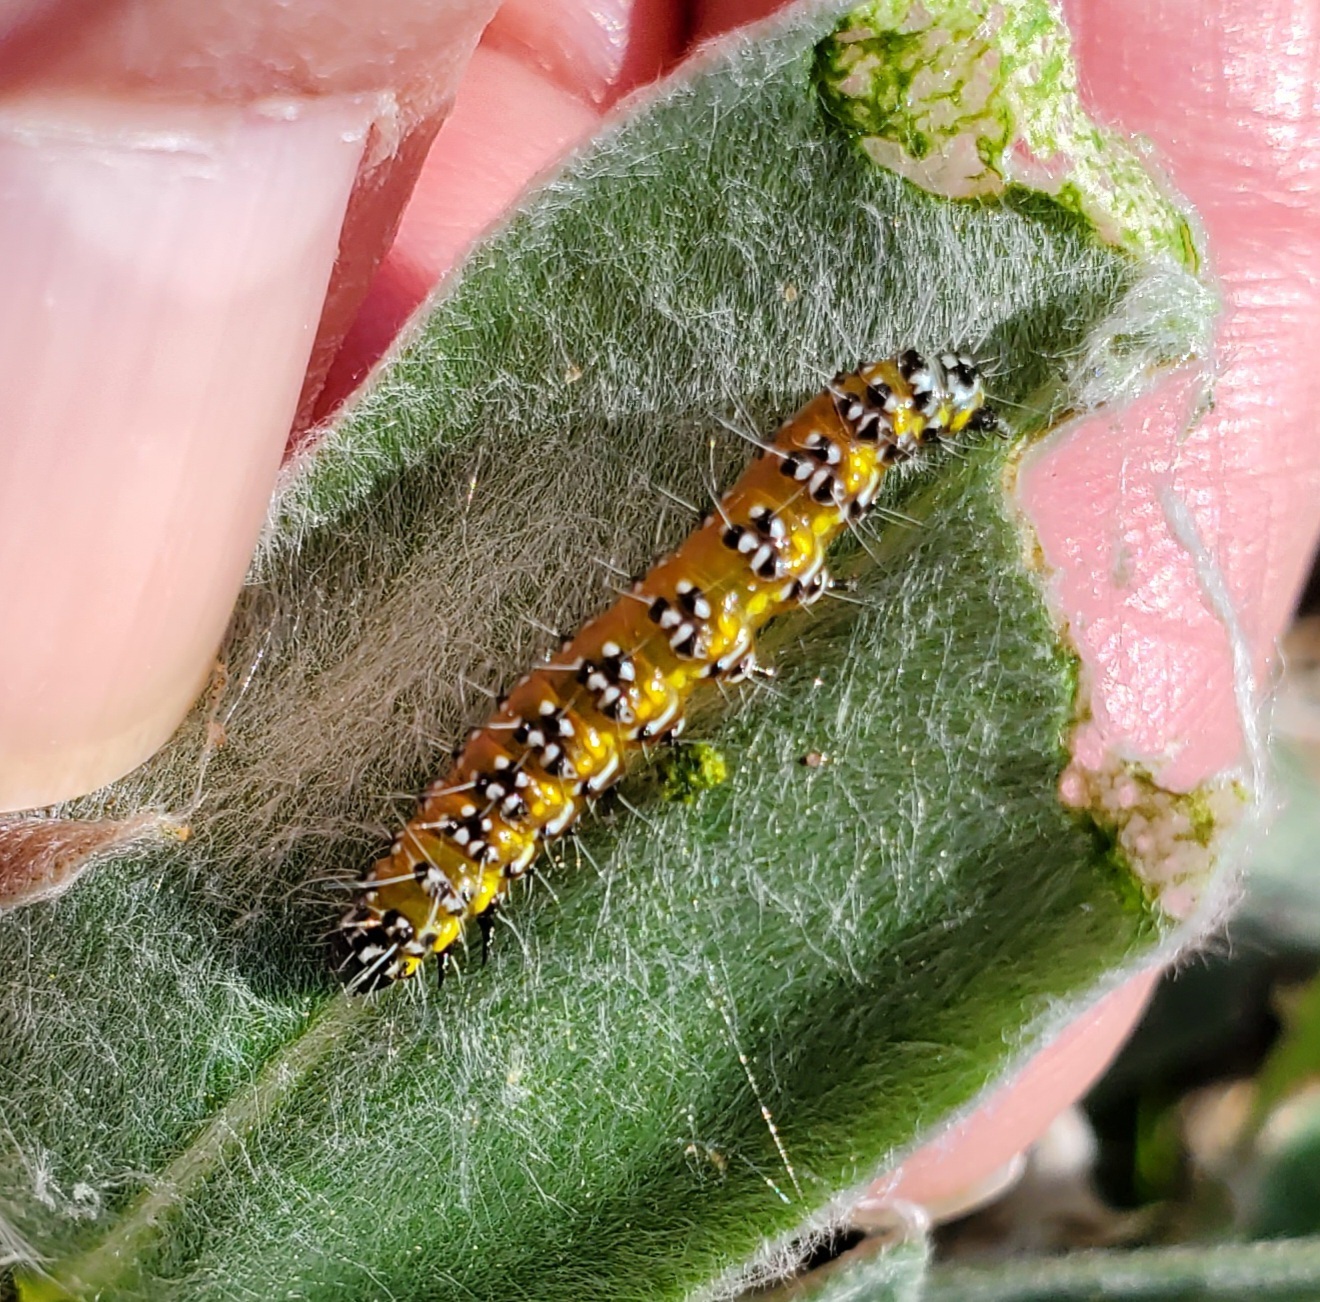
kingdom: Animalia
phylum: Arthropoda
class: Insecta
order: Lepidoptera
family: Crambidae
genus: Uresiphita
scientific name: Uresiphita reversalis
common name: Genista broom moth
